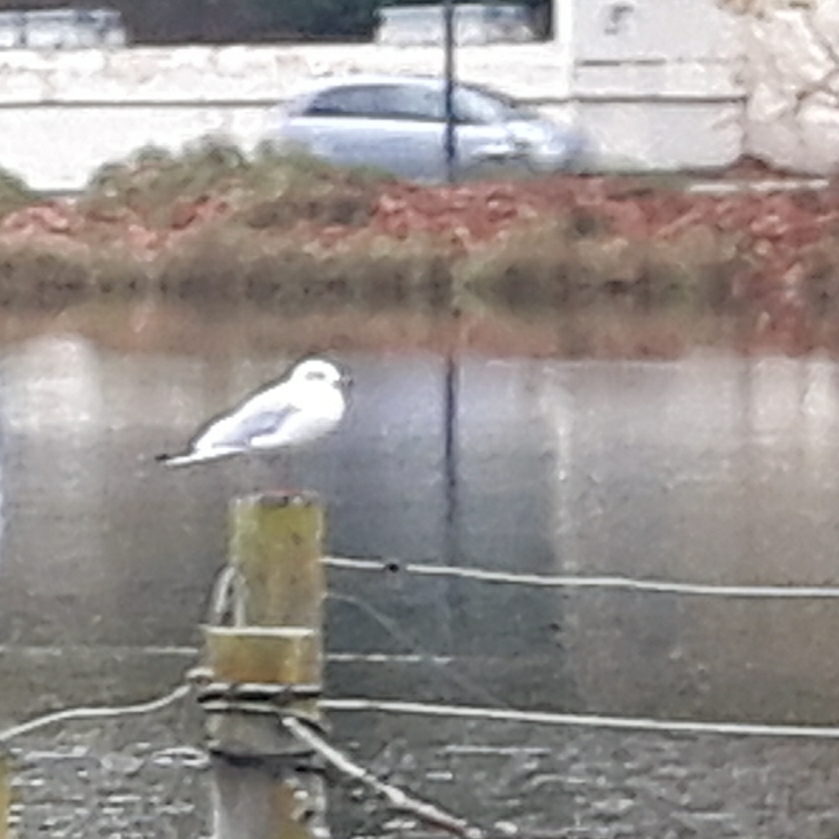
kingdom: Animalia
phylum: Chordata
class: Aves
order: Charadriiformes
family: Laridae
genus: Chroicocephalus
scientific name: Chroicocephalus ridibundus
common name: Black-headed gull
